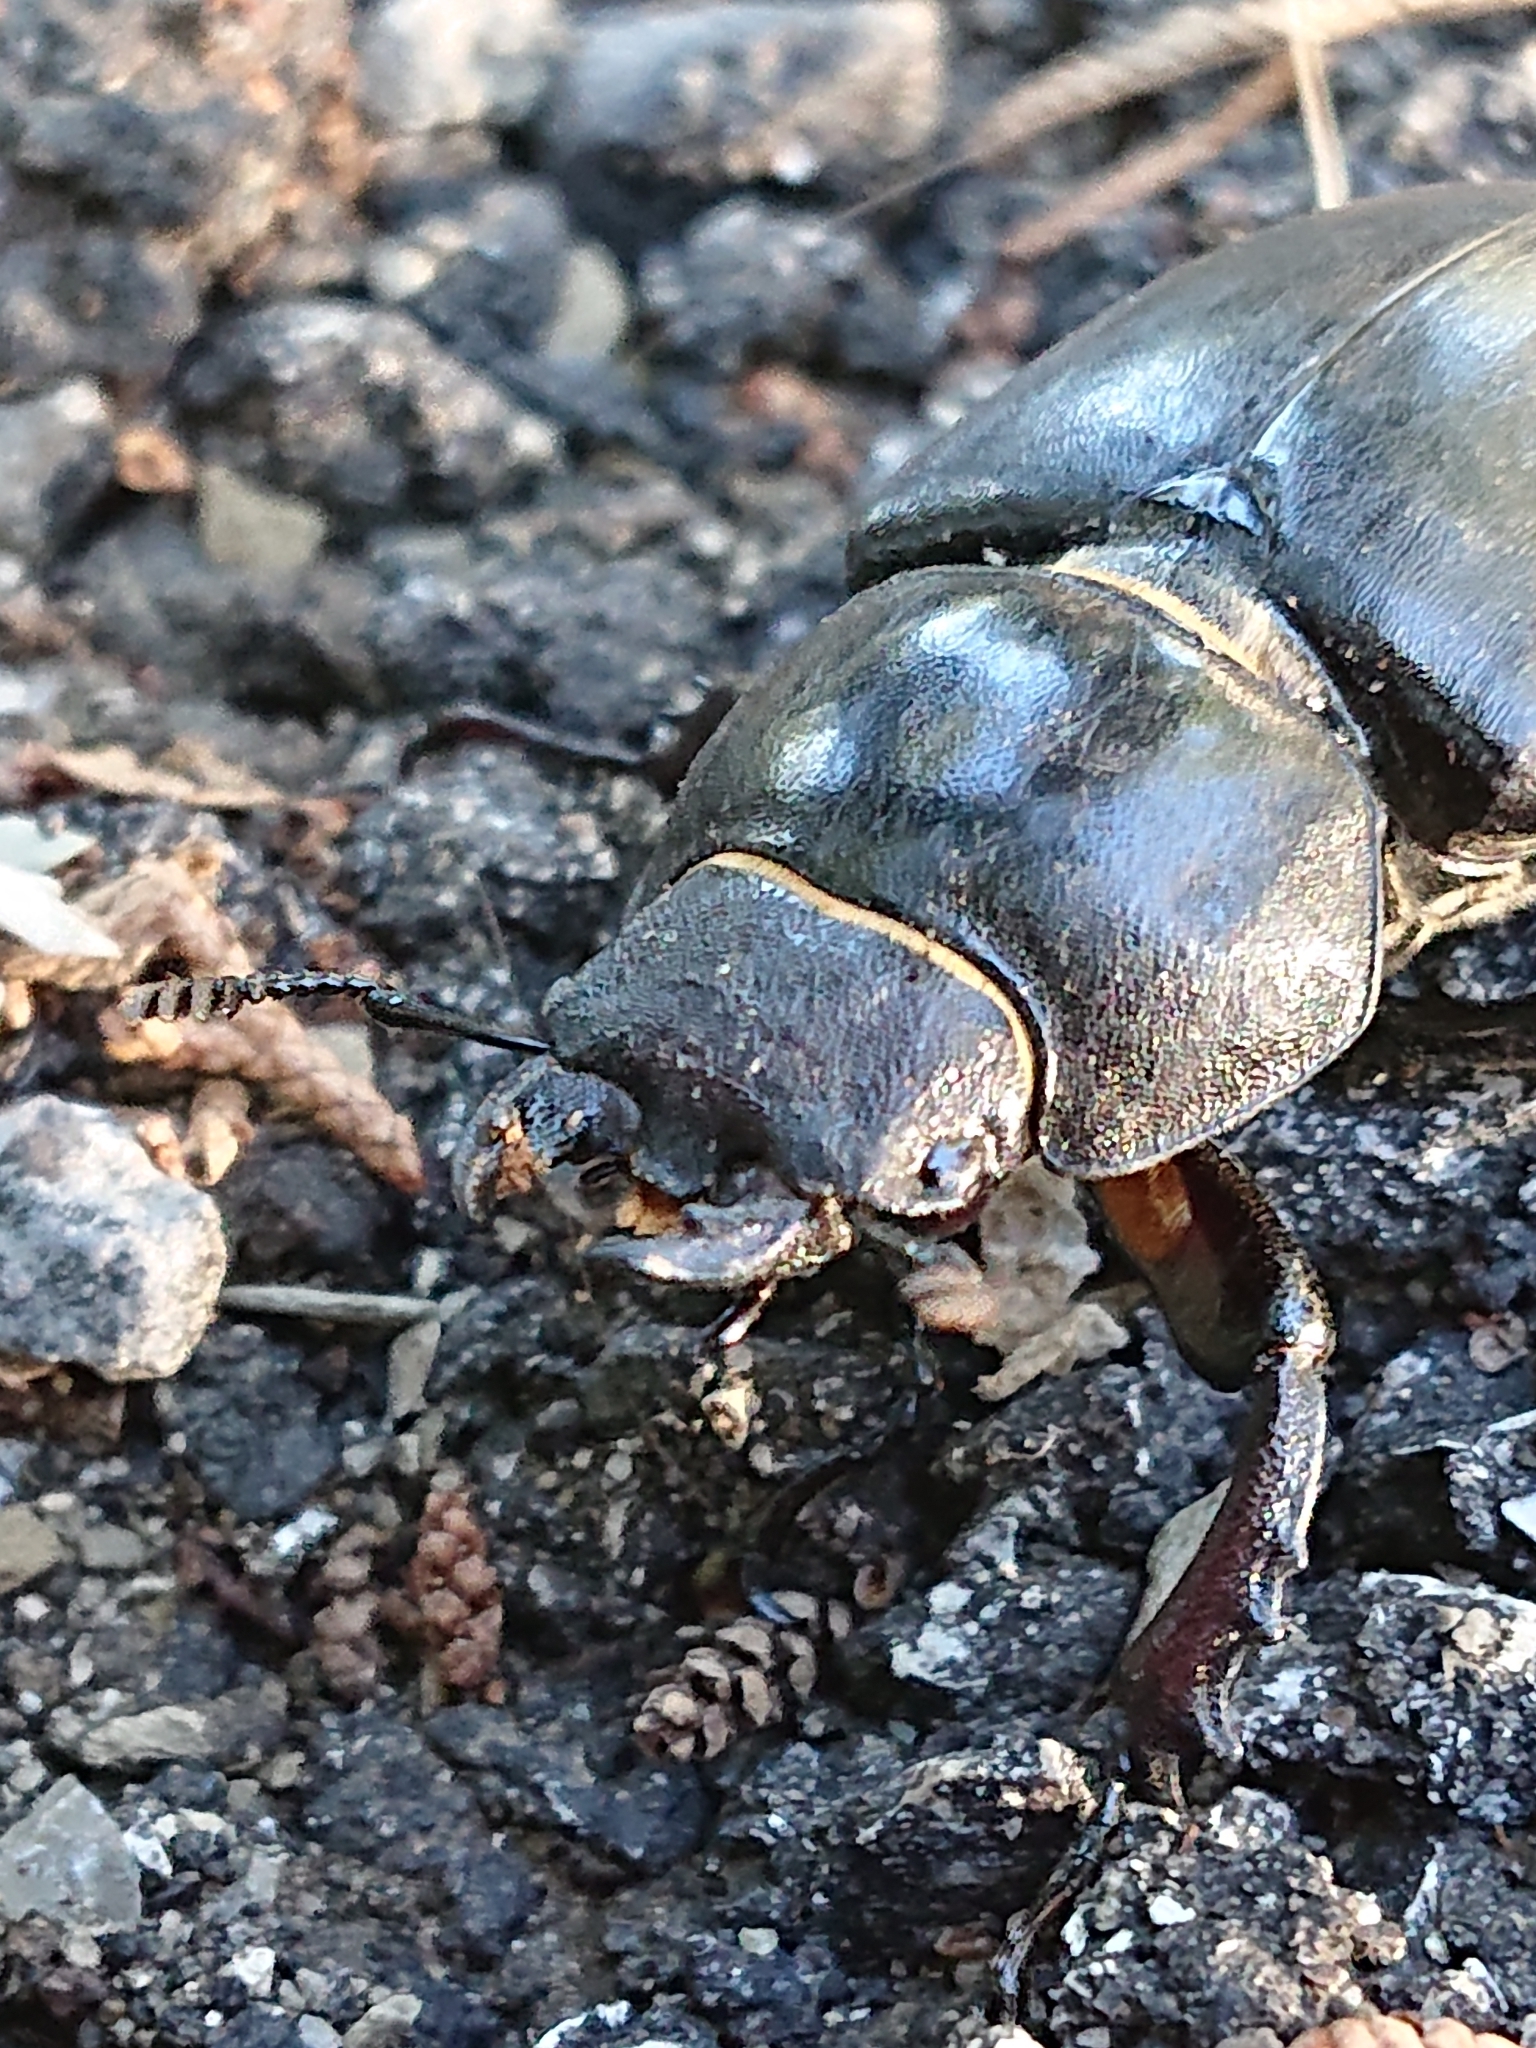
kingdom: Animalia
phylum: Arthropoda
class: Insecta
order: Coleoptera
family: Lucanidae
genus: Lucanus
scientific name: Lucanus cervus
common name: Stag beetle
